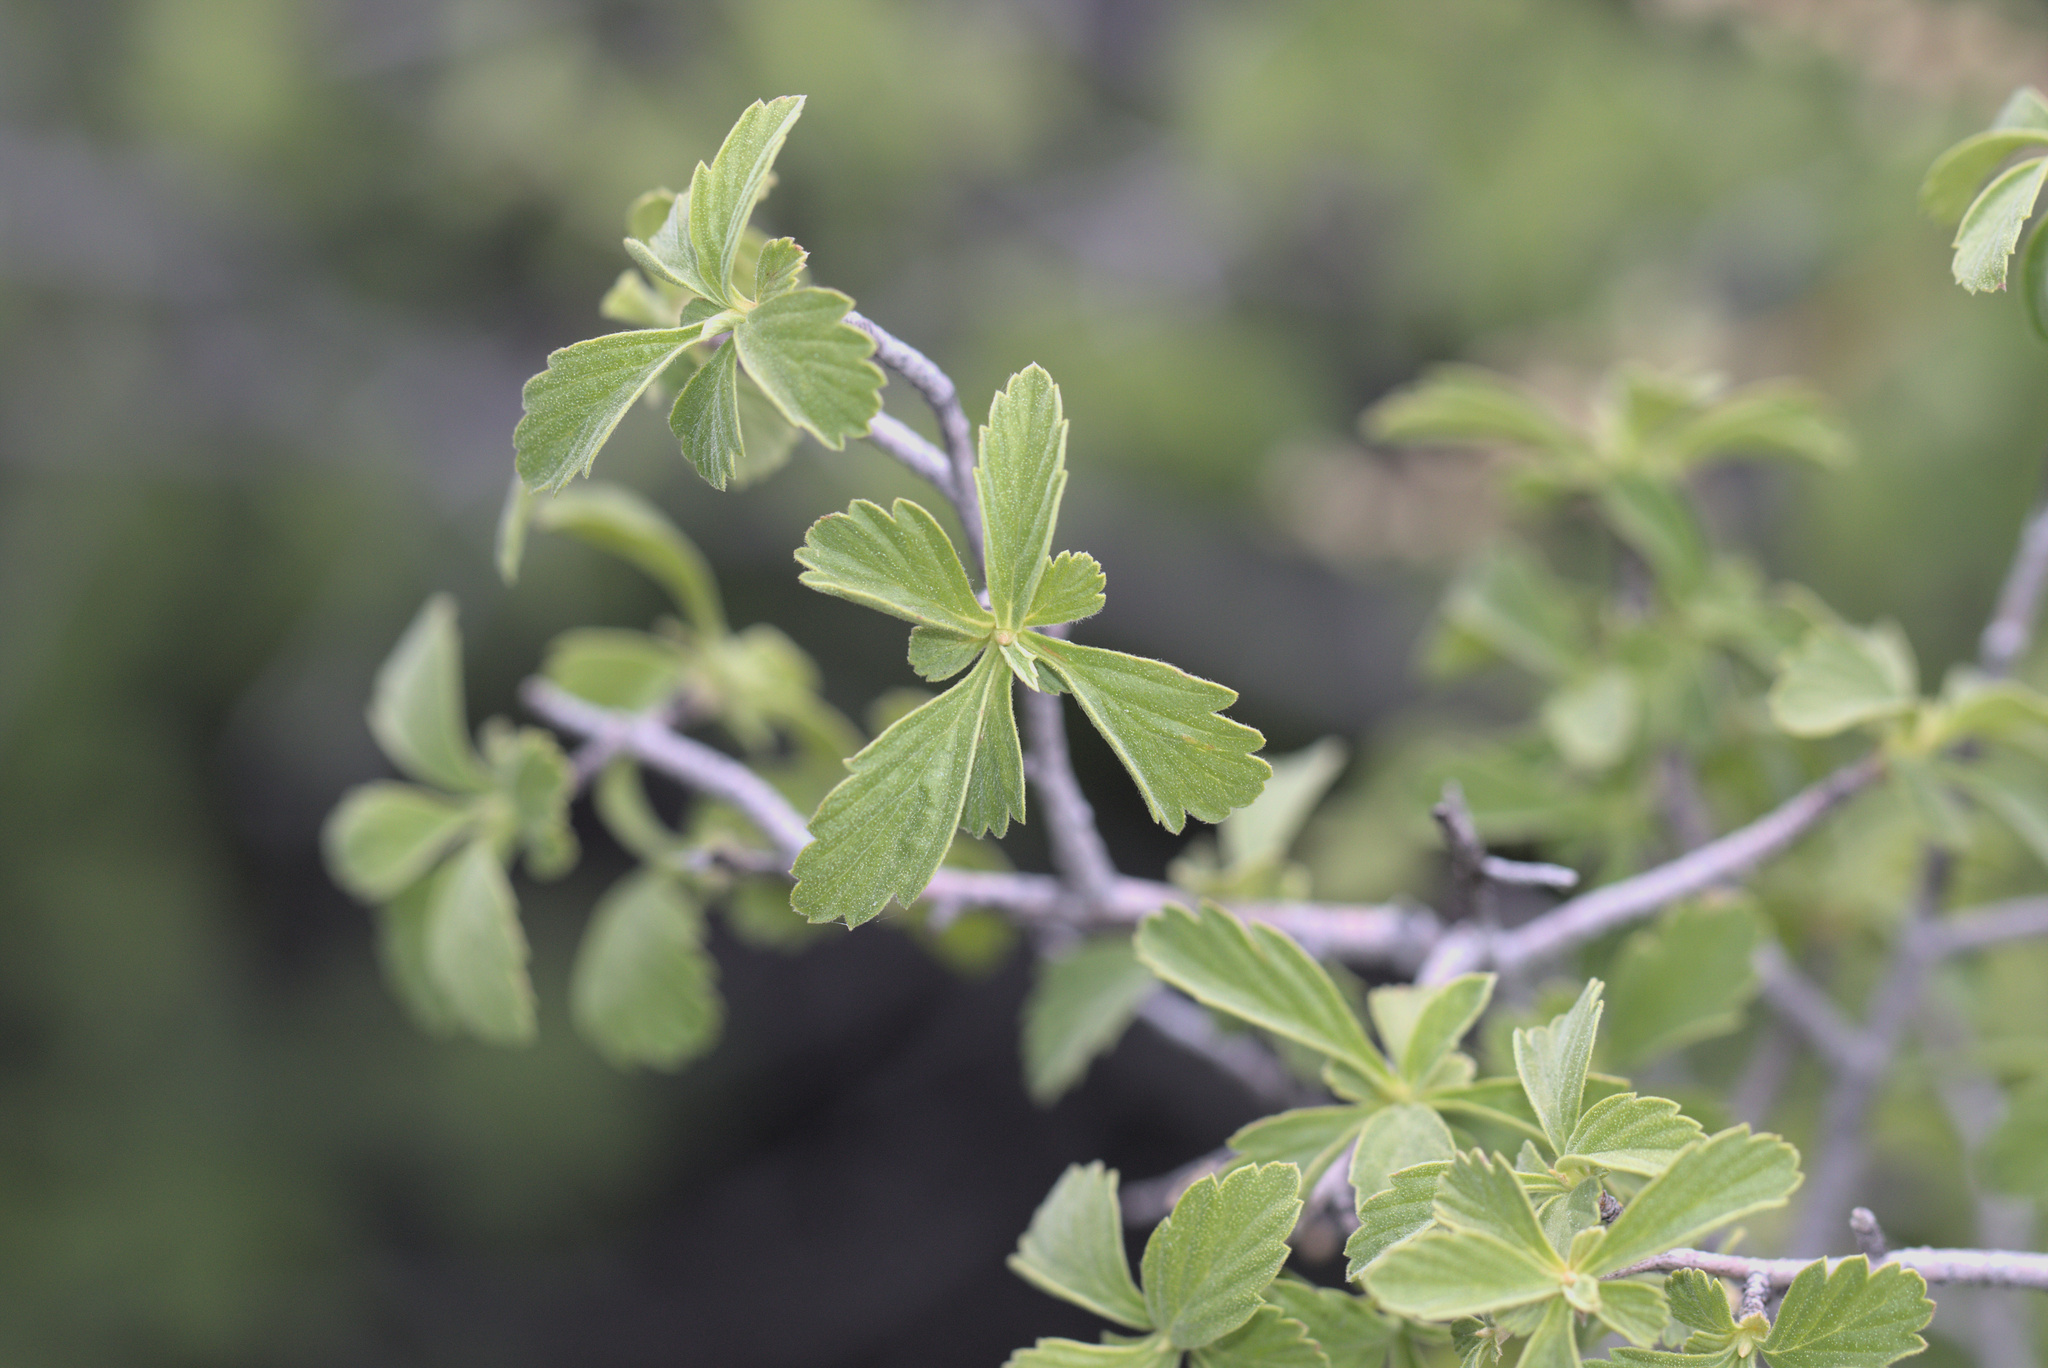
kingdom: Plantae
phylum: Tracheophyta
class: Magnoliopsida
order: Rosales
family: Rosaceae
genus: Holodiscus
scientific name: Holodiscus discolor
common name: Oceanspray
